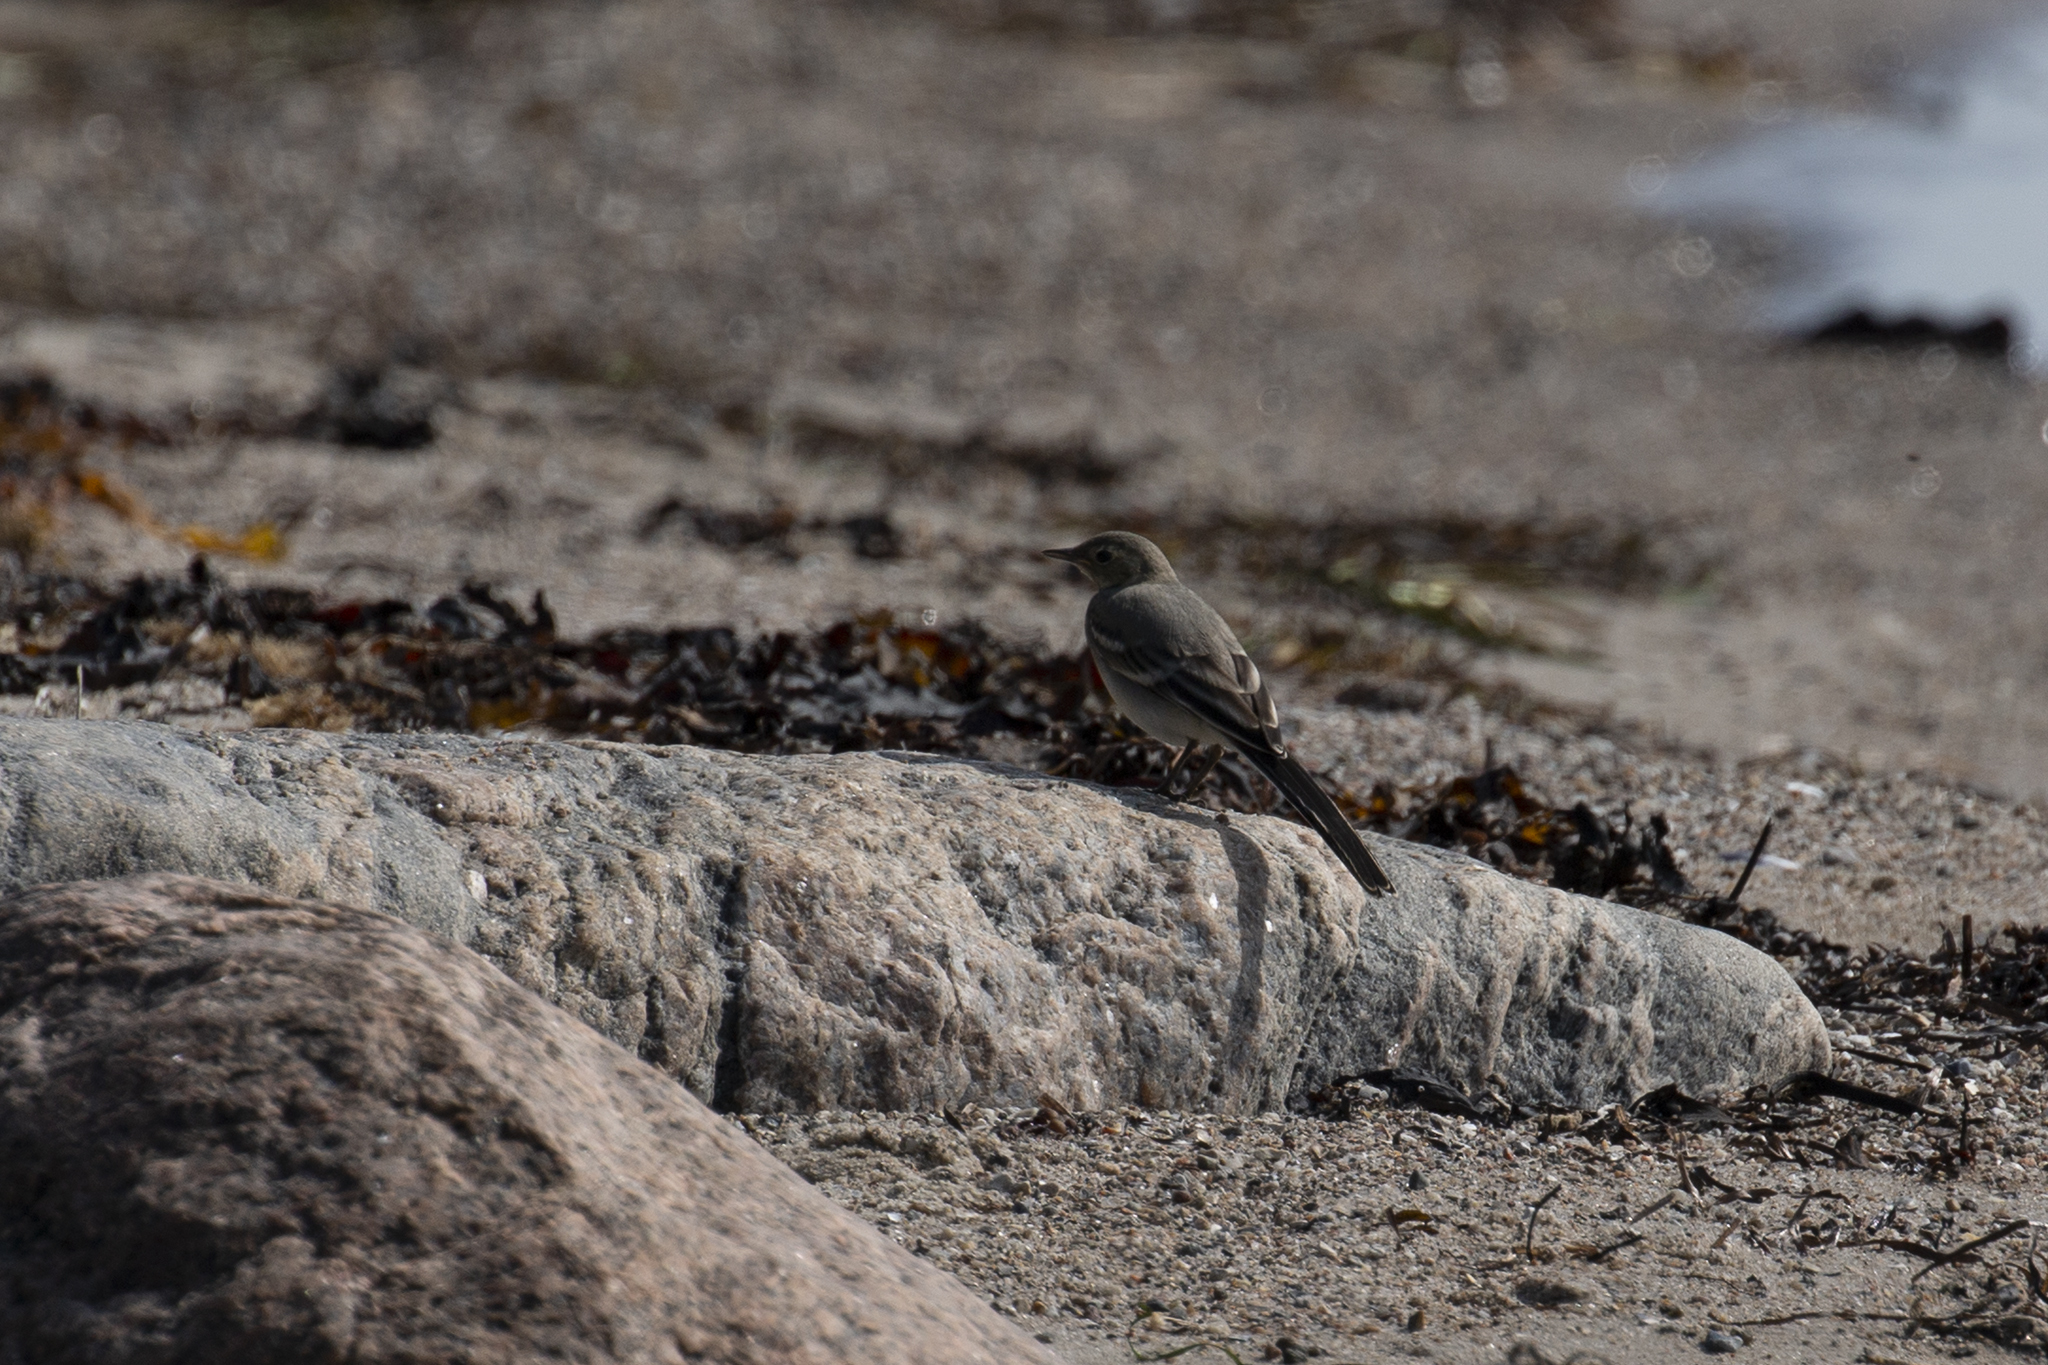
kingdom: Animalia
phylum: Chordata
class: Aves
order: Passeriformes
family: Motacillidae
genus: Motacilla
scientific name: Motacilla alba
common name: White wagtail
